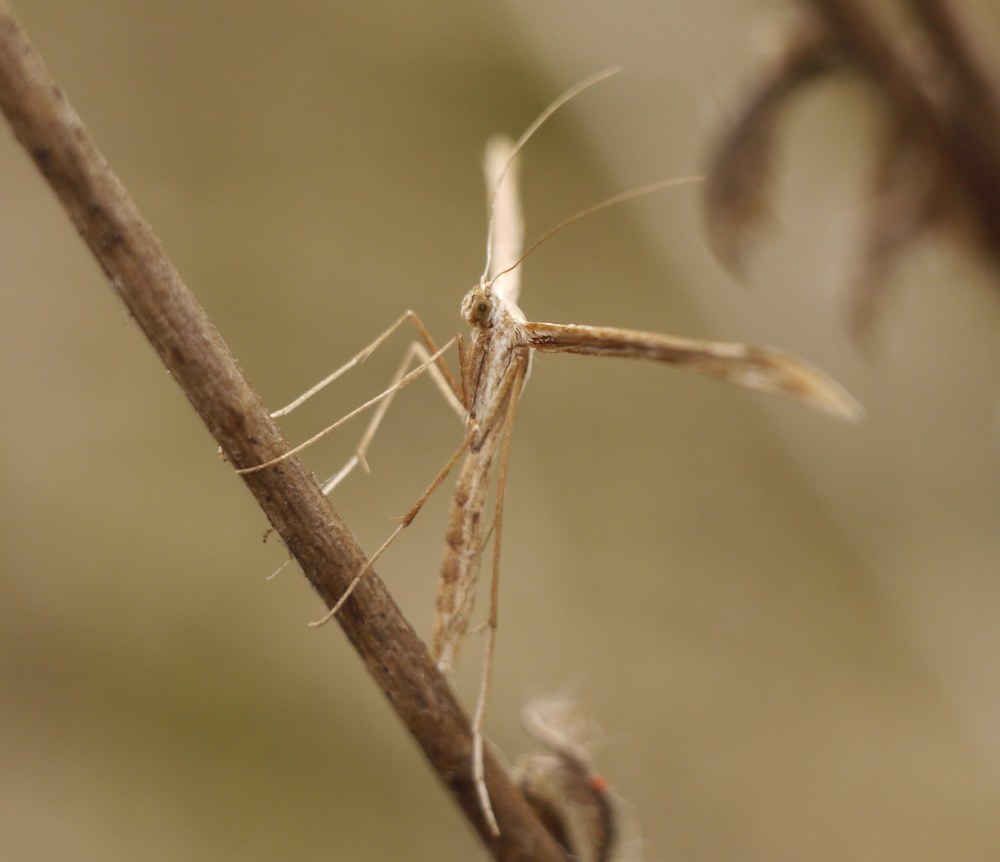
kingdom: Animalia
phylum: Arthropoda
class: Insecta
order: Lepidoptera
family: Pterophoridae
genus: Emmelina
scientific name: Emmelina monodactyla
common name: Common plume
